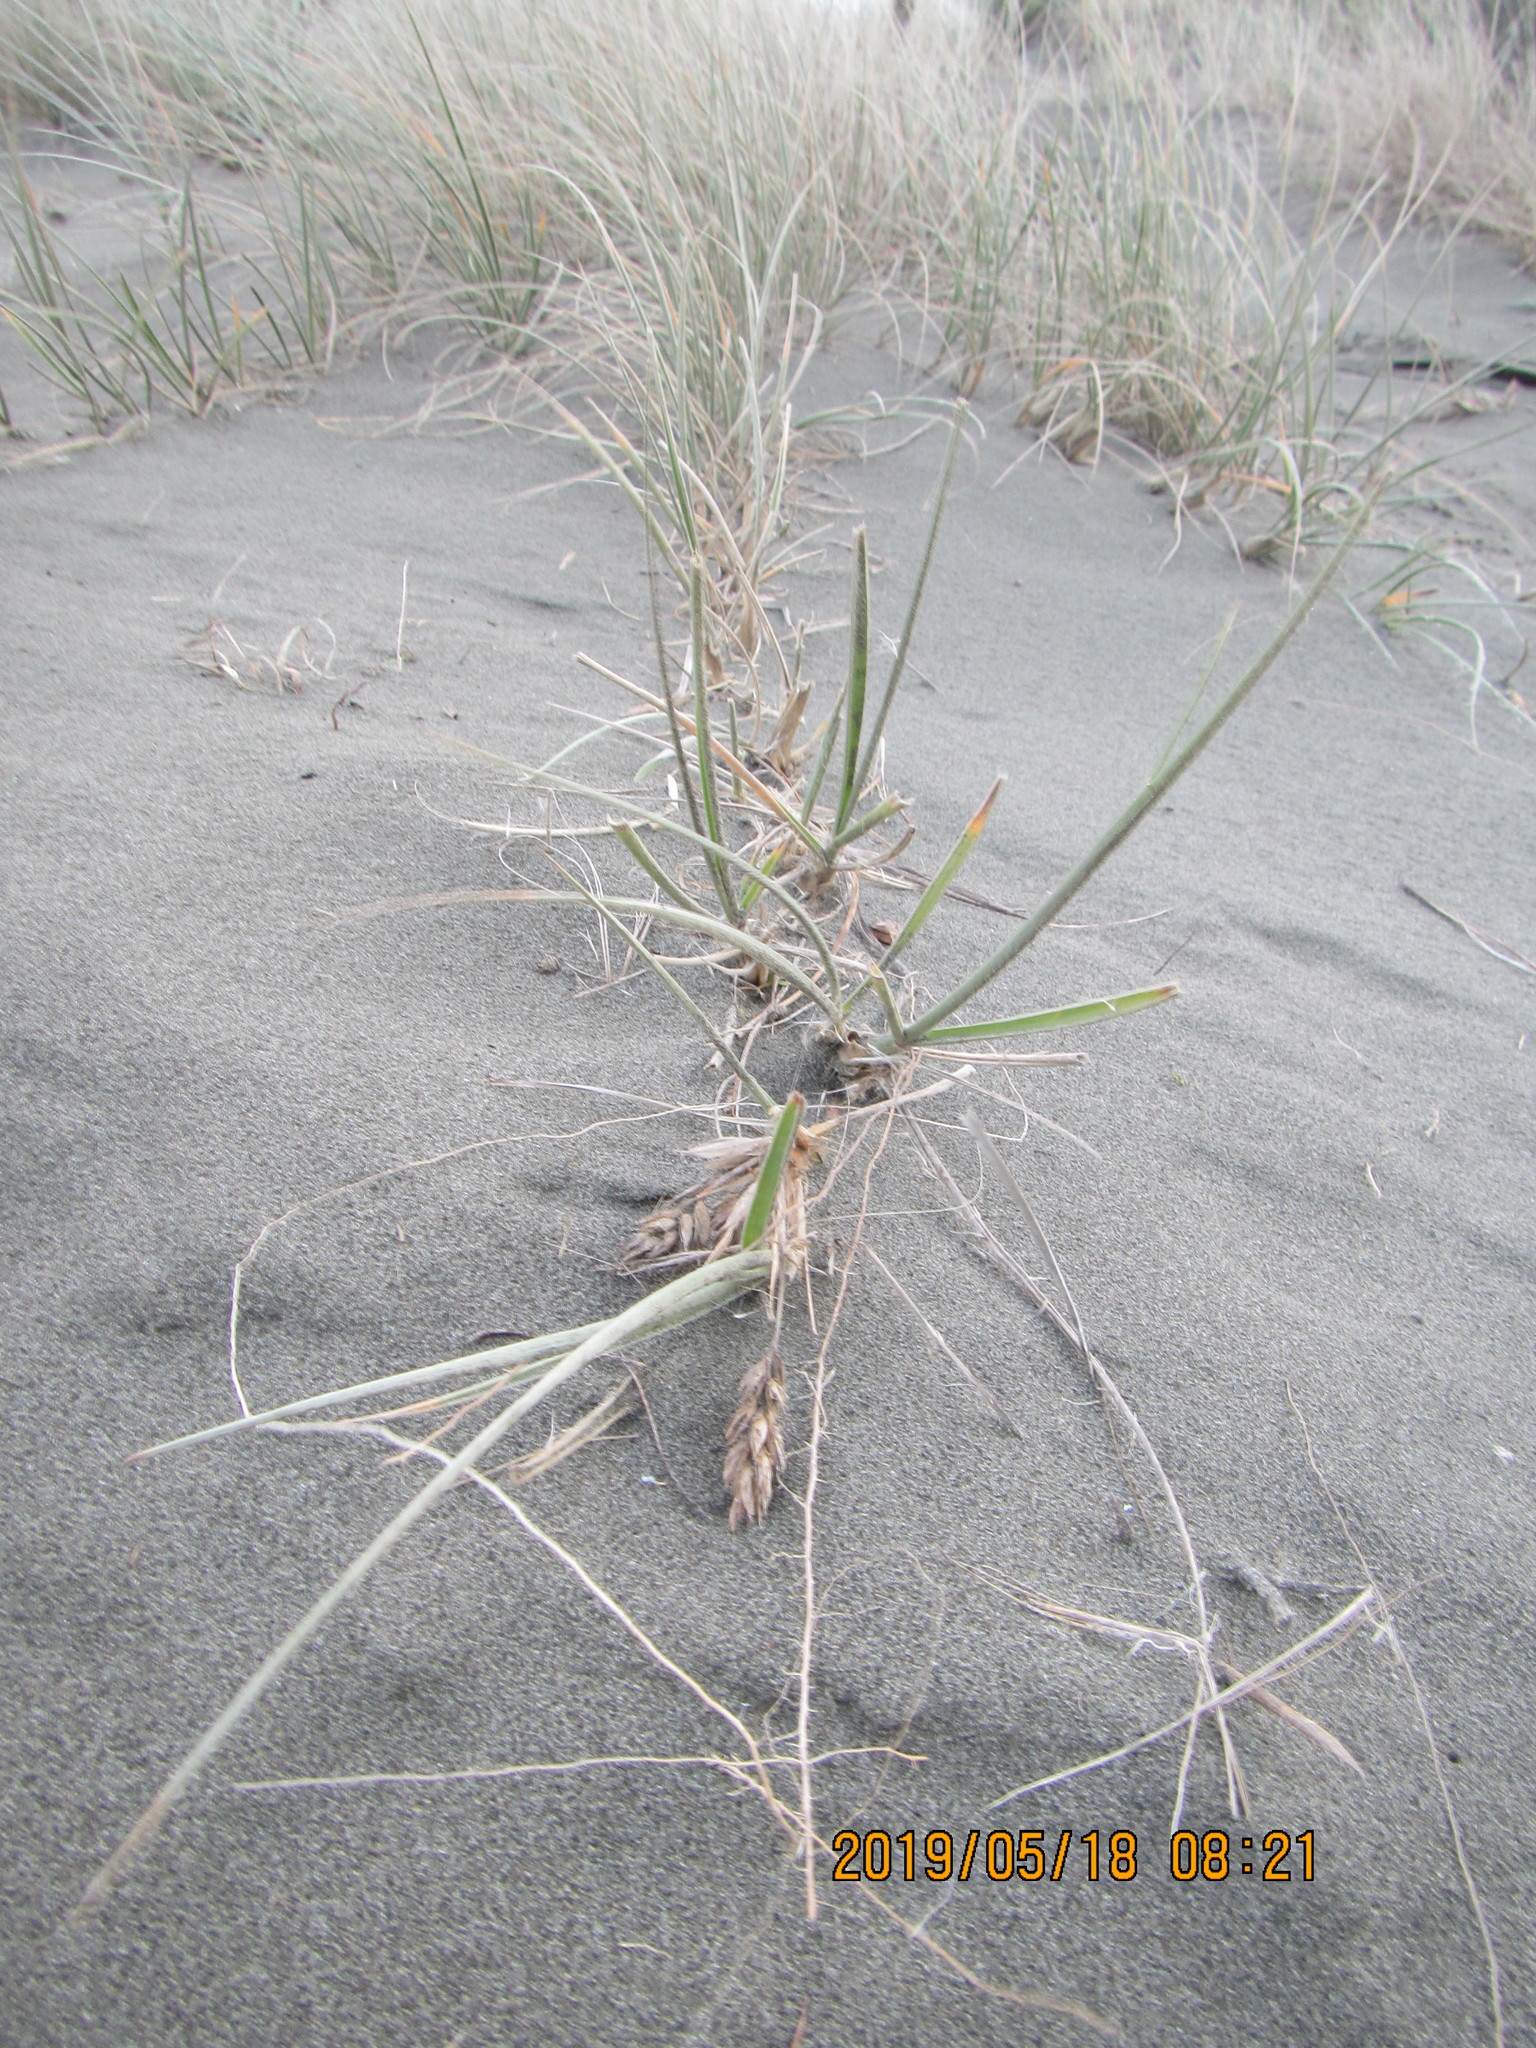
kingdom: Plantae
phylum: Tracheophyta
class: Liliopsida
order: Poales
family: Poaceae
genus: Spinifex
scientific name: Spinifex sericeus
